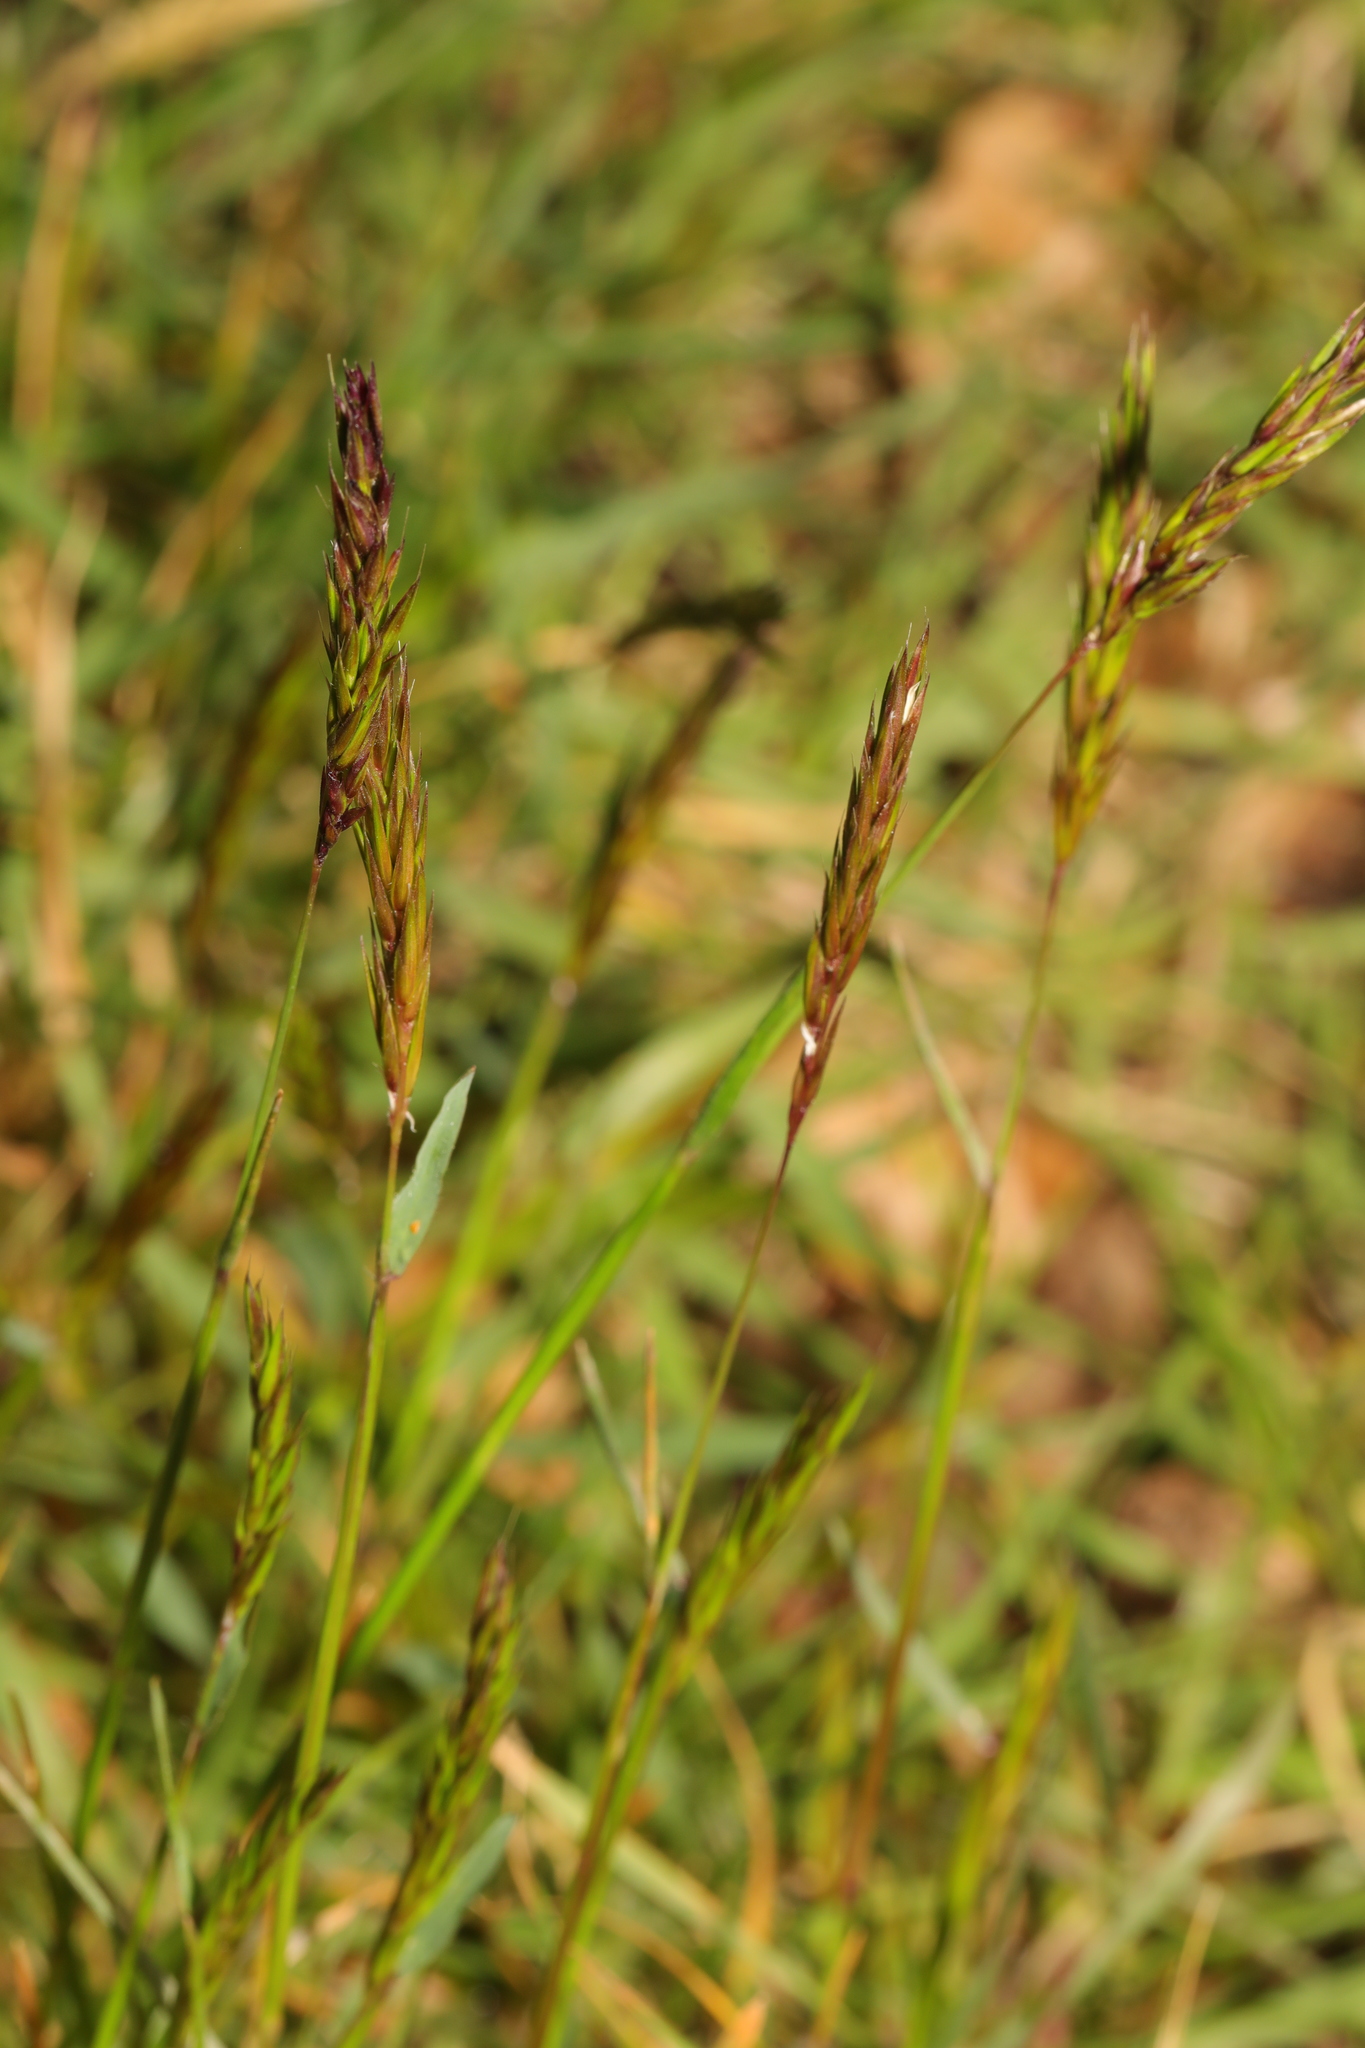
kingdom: Plantae
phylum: Tracheophyta
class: Liliopsida
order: Poales
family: Poaceae
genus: Anthoxanthum
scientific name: Anthoxanthum odoratum
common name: Sweet vernalgrass
